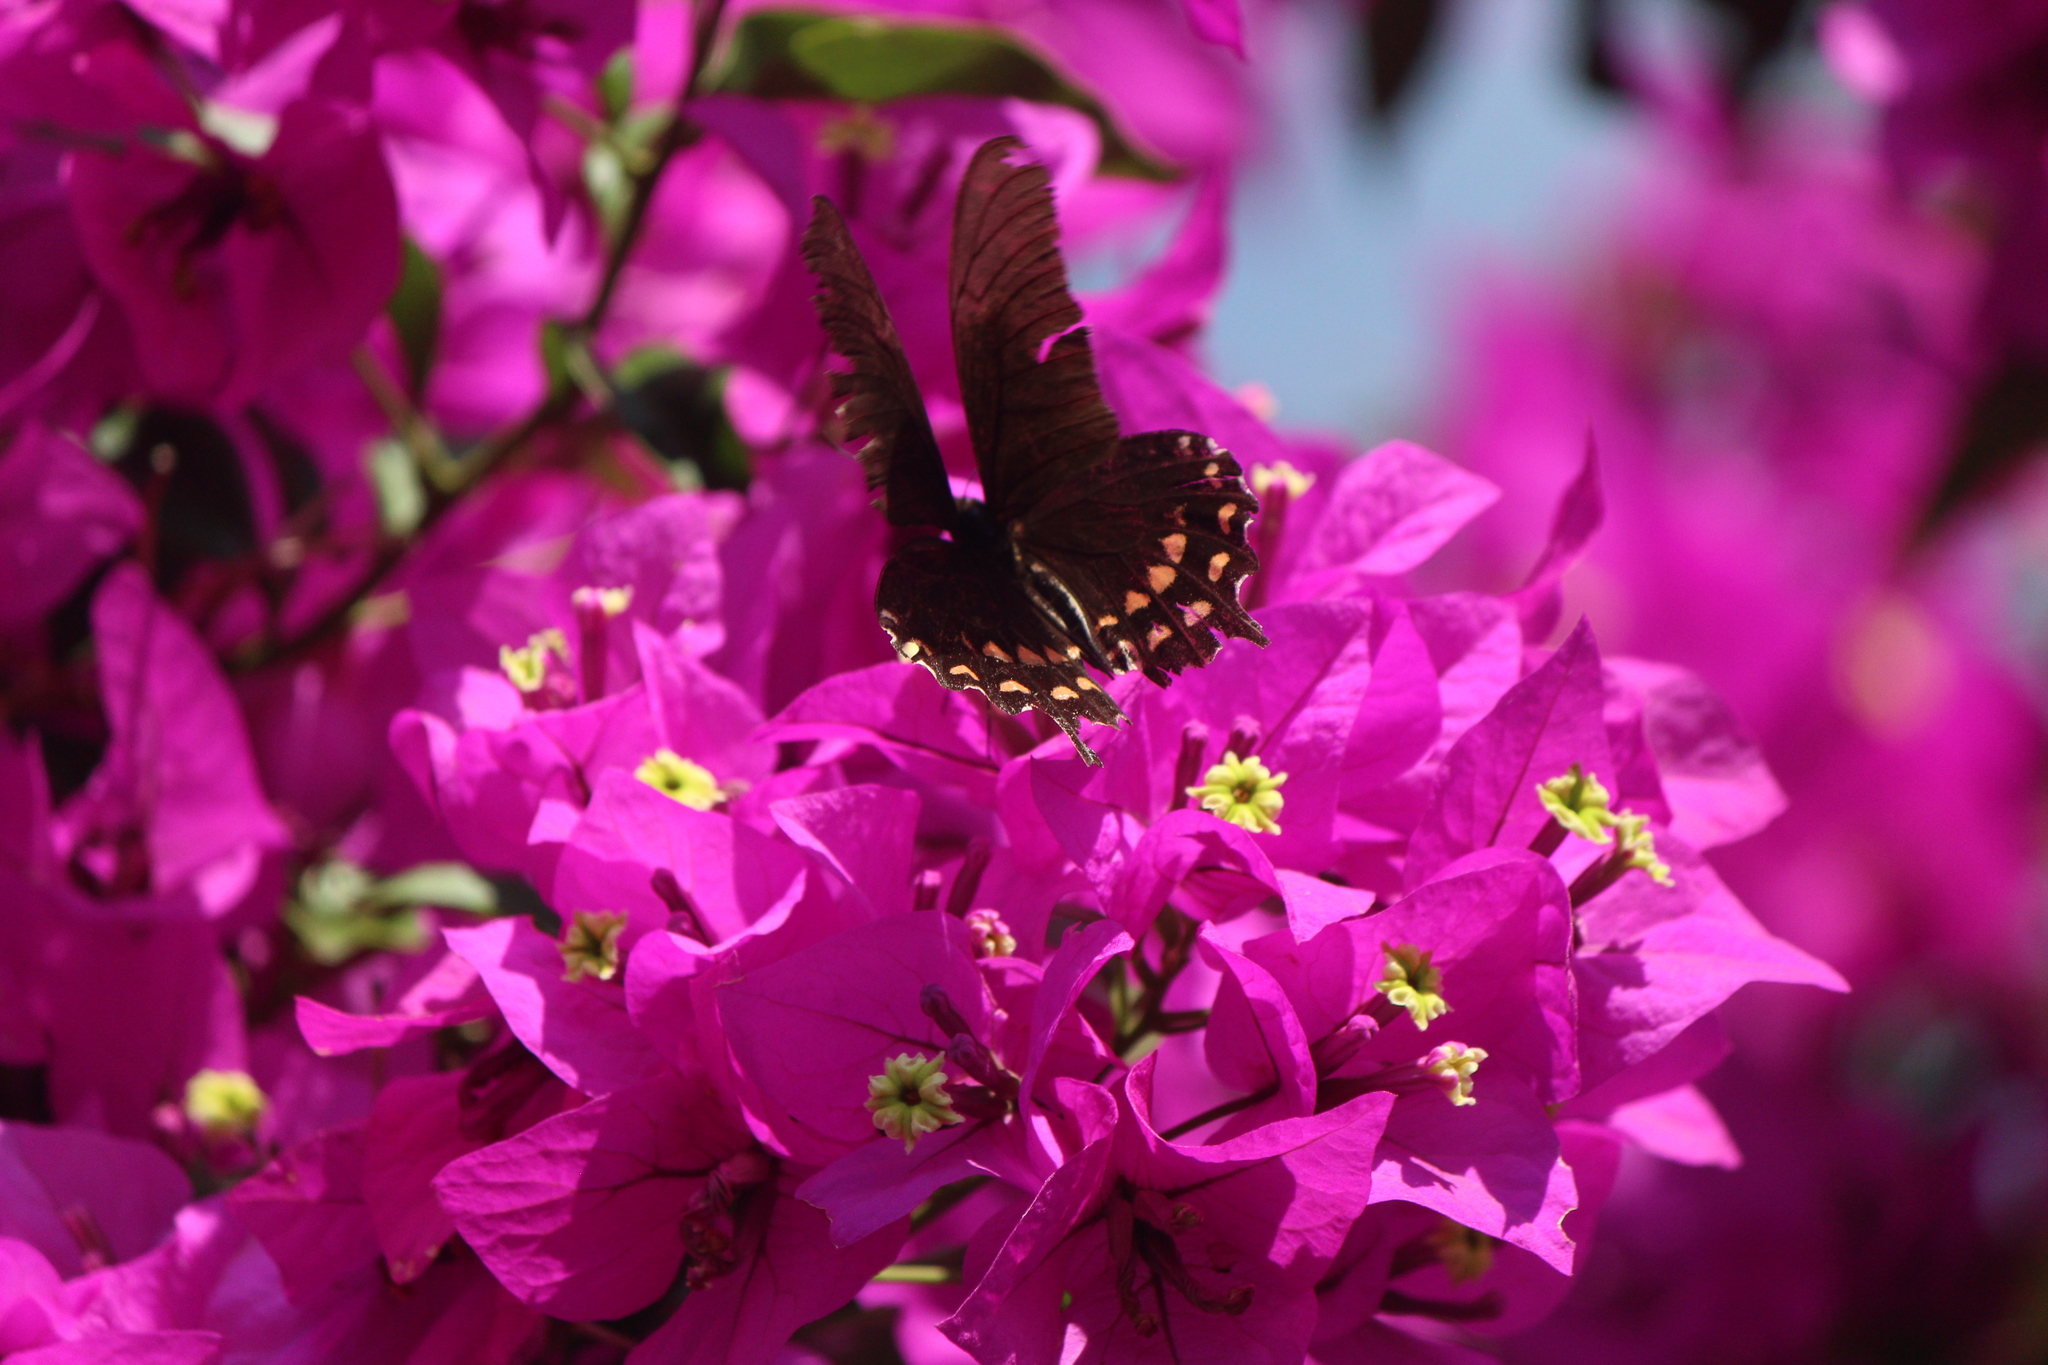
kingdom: Animalia
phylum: Arthropoda
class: Insecta
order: Lepidoptera
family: Papilionidae
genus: Heraclides
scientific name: Heraclides rogeri
